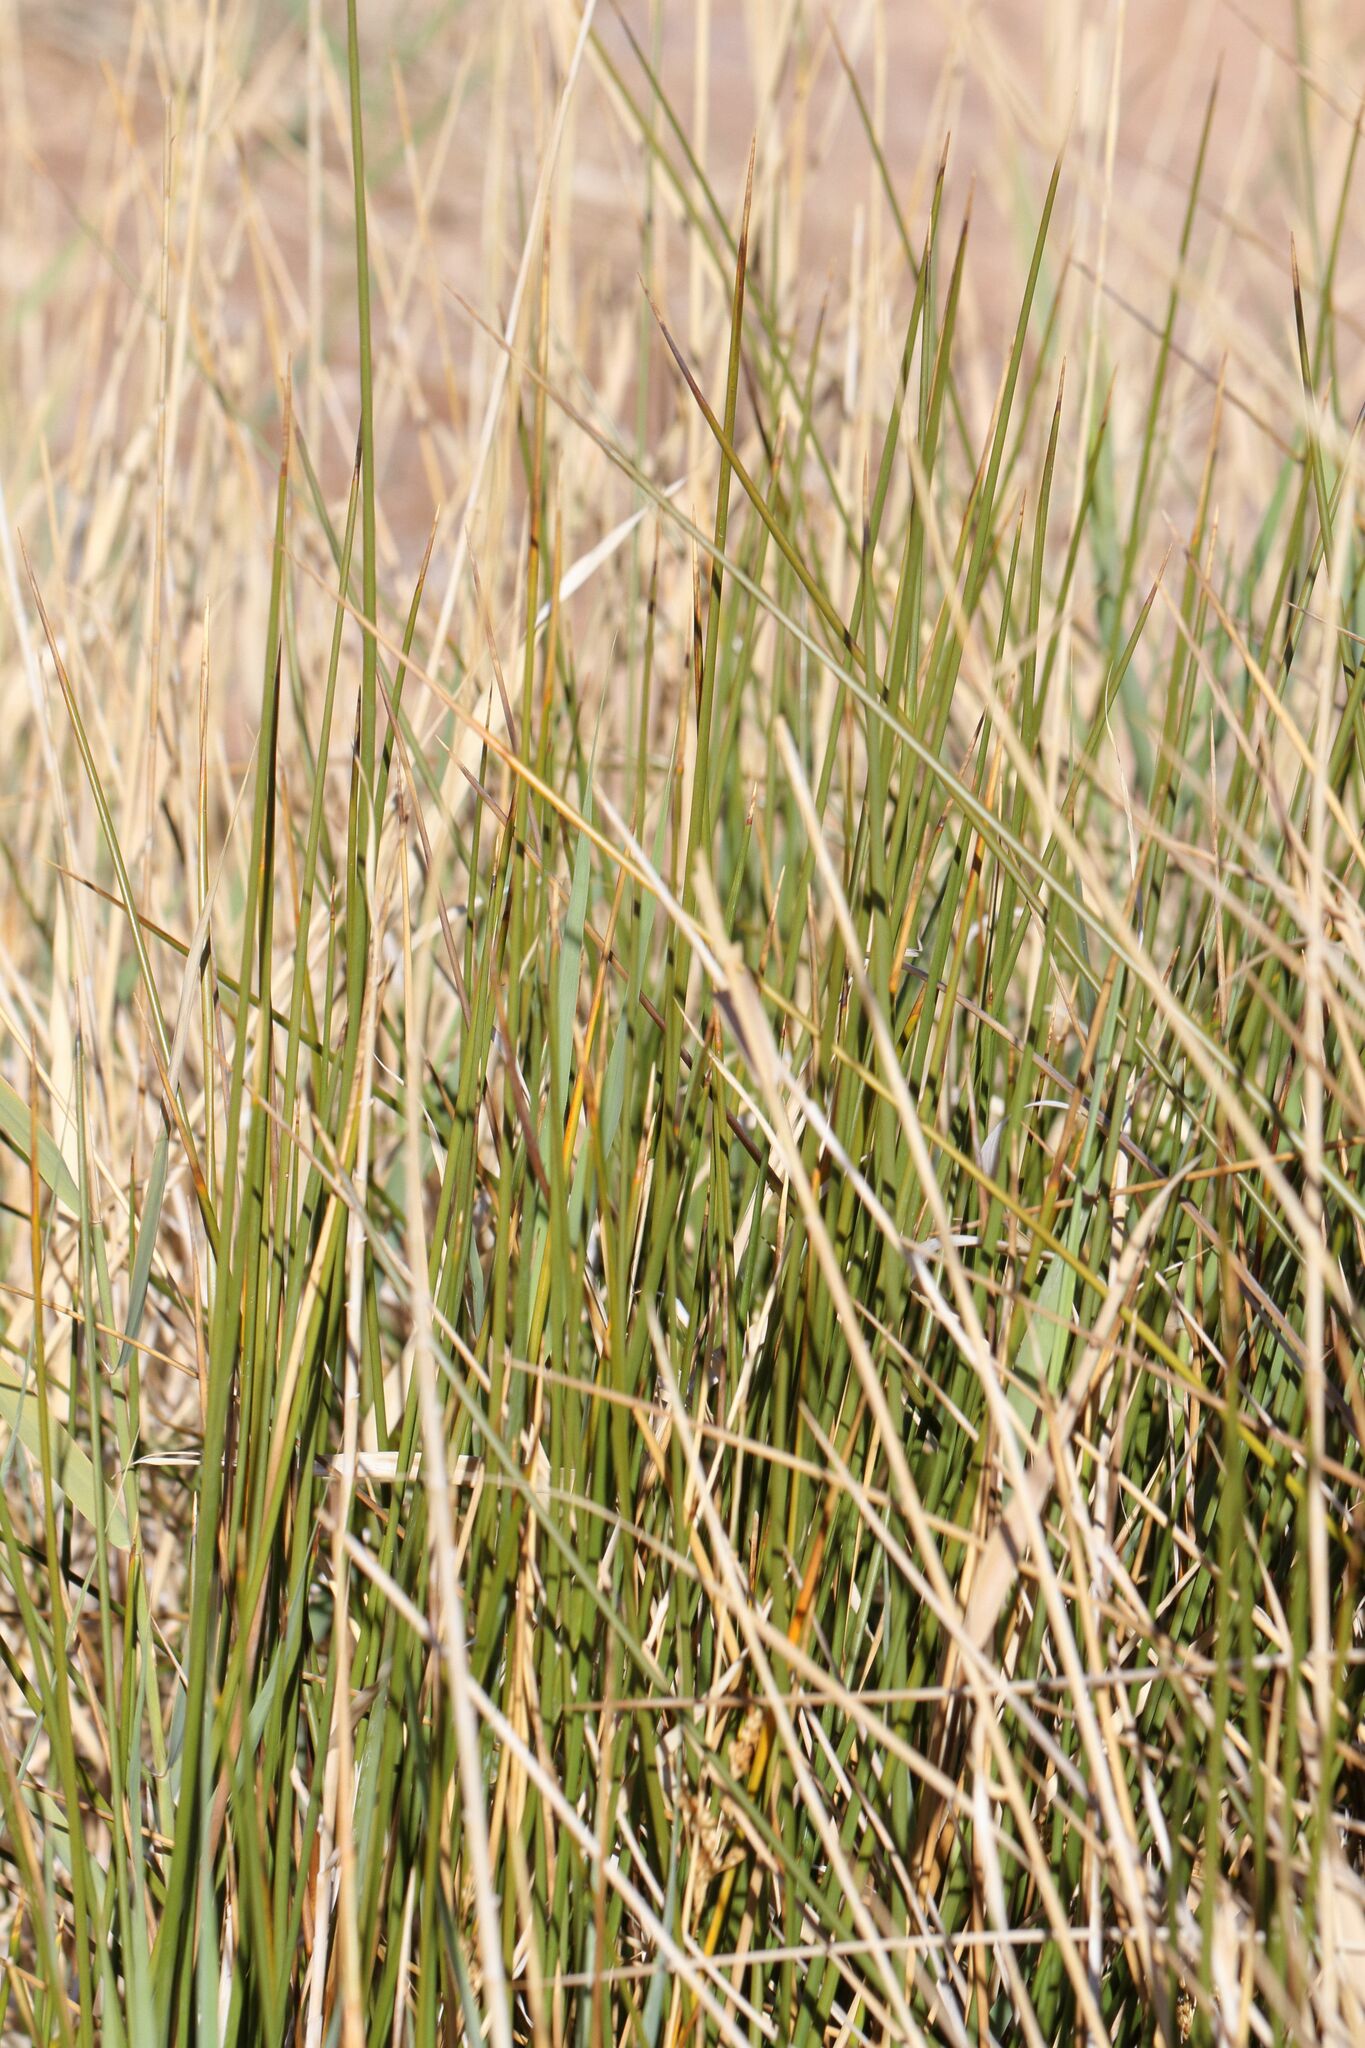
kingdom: Plantae
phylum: Tracheophyta
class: Liliopsida
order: Poales
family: Juncaceae
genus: Juncus
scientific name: Juncus rigidus
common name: Hard sea rush
